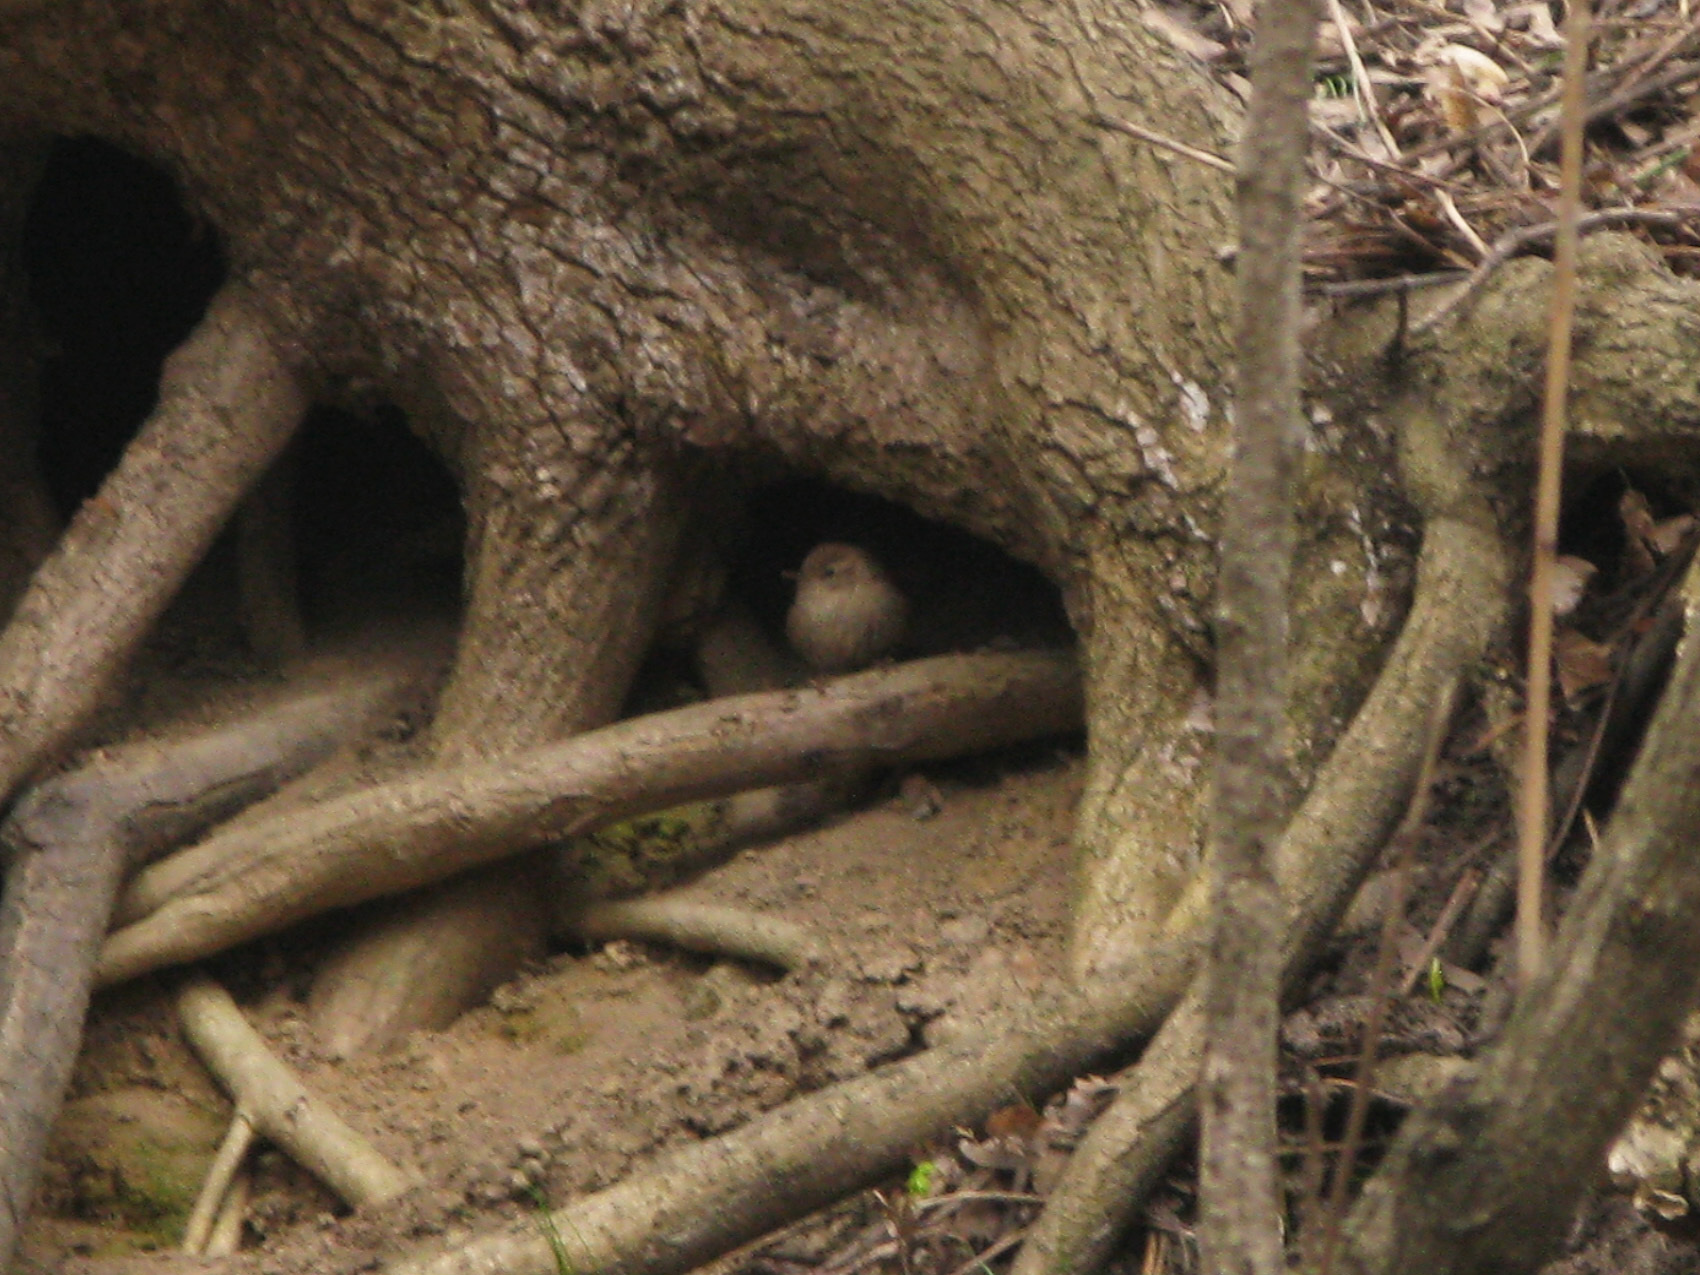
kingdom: Animalia
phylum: Chordata
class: Aves
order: Passeriformes
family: Troglodytidae
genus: Troglodytes
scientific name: Troglodytes troglodytes
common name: Eurasian wren
